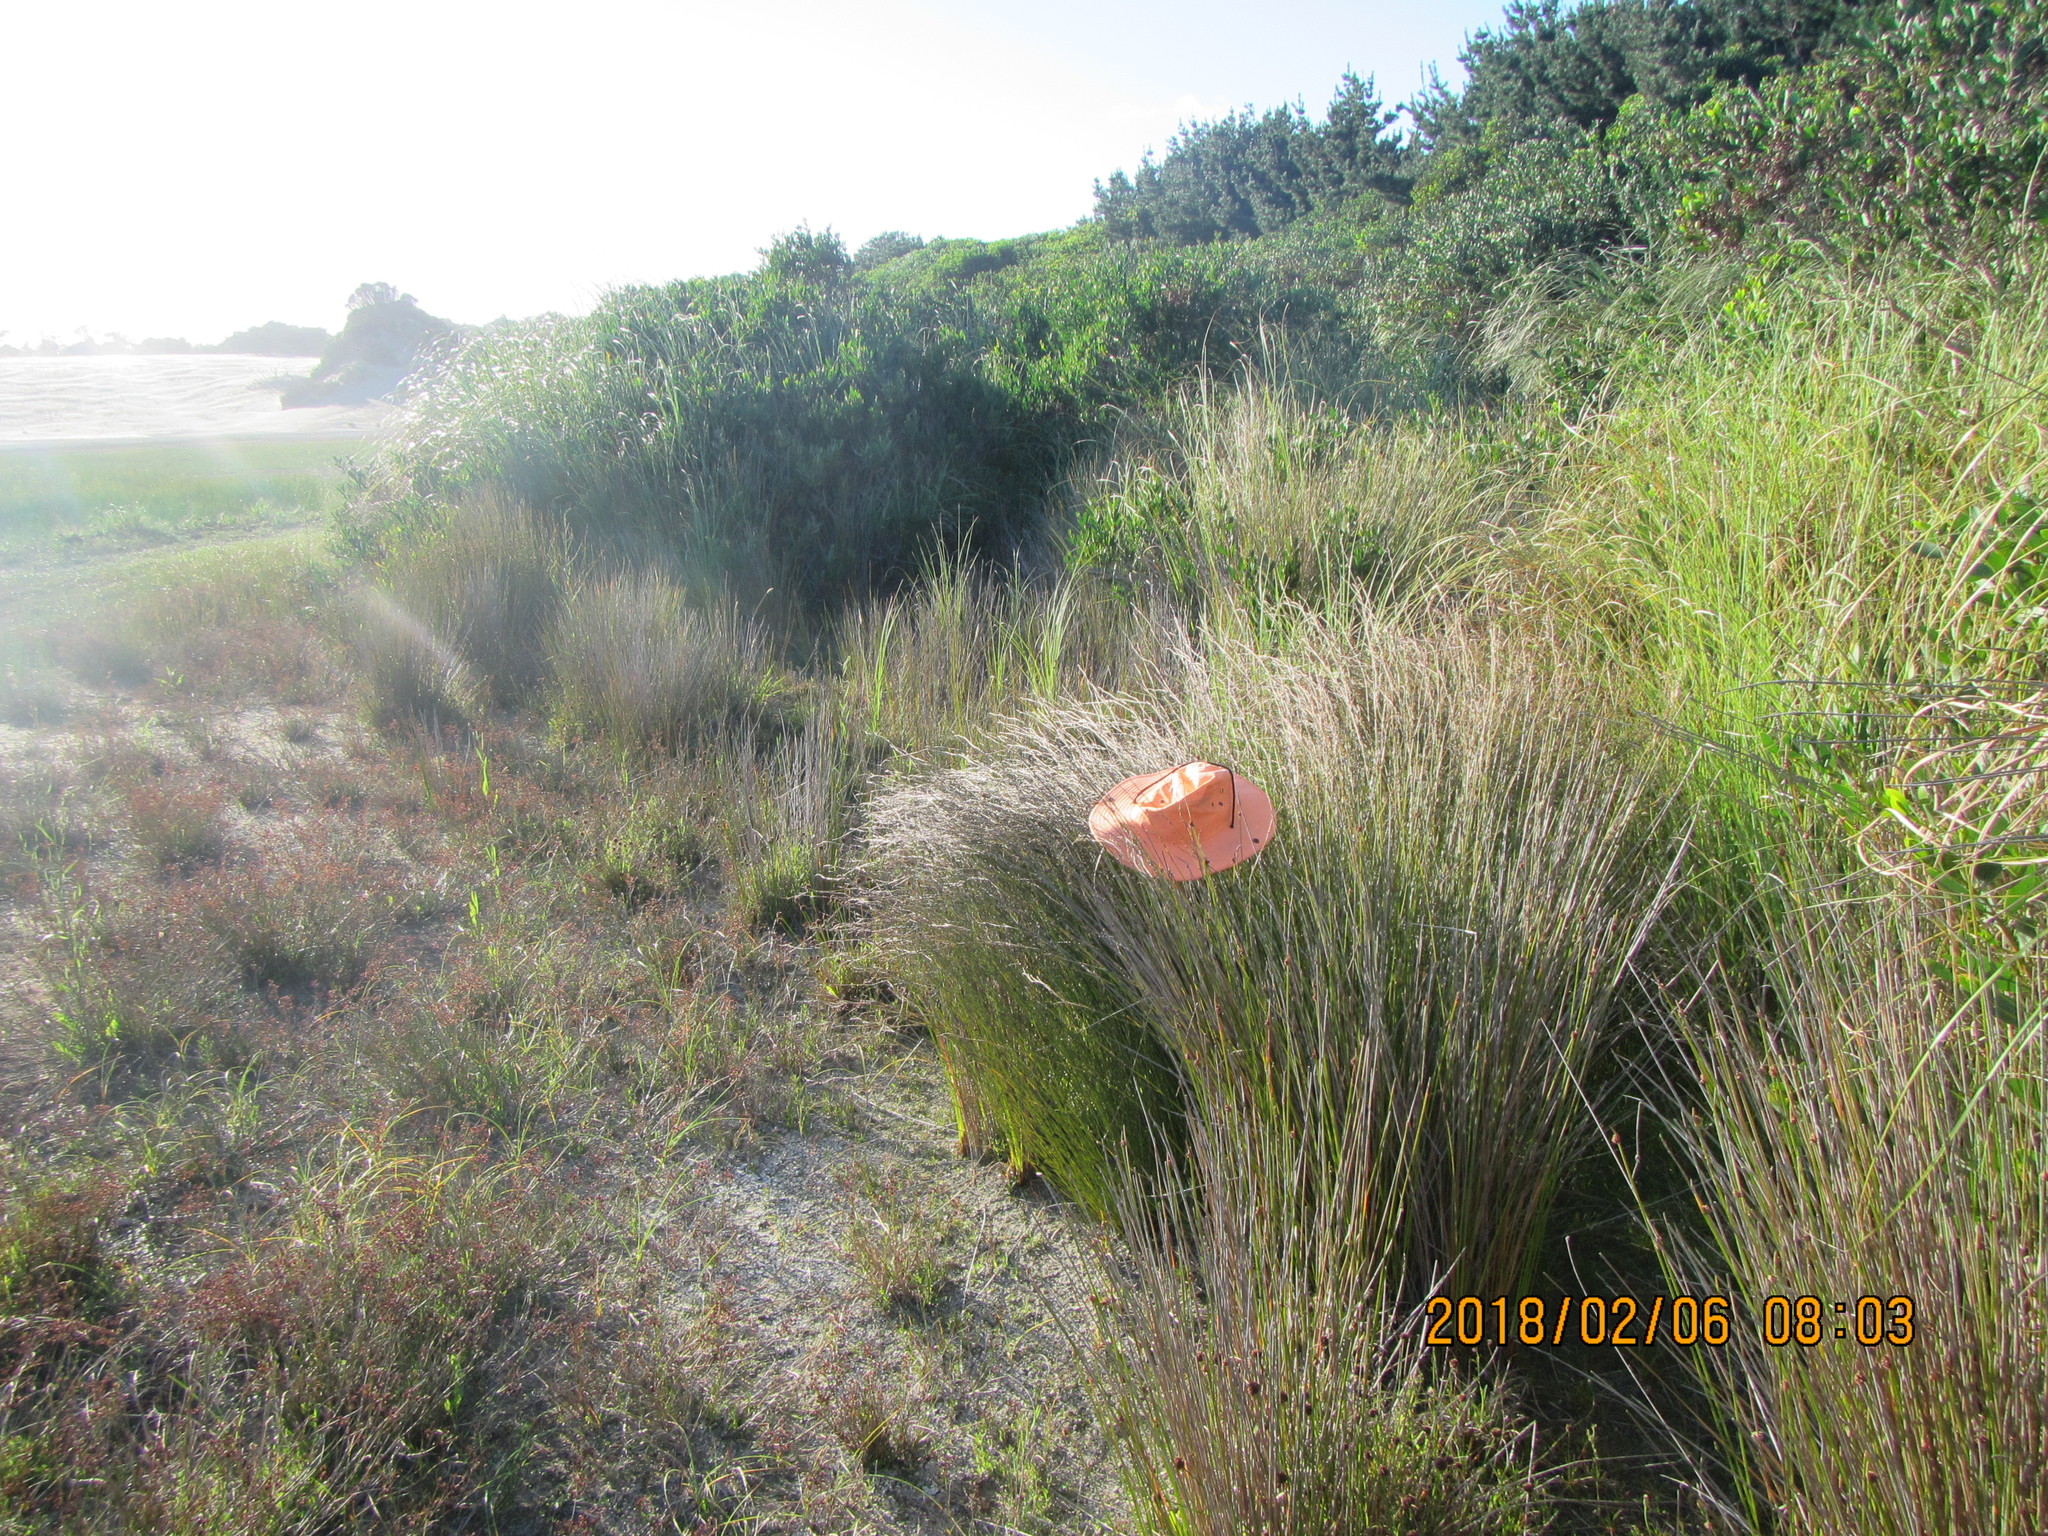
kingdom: Plantae
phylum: Tracheophyta
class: Liliopsida
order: Poales
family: Restionaceae
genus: Apodasmia
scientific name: Apodasmia similis
